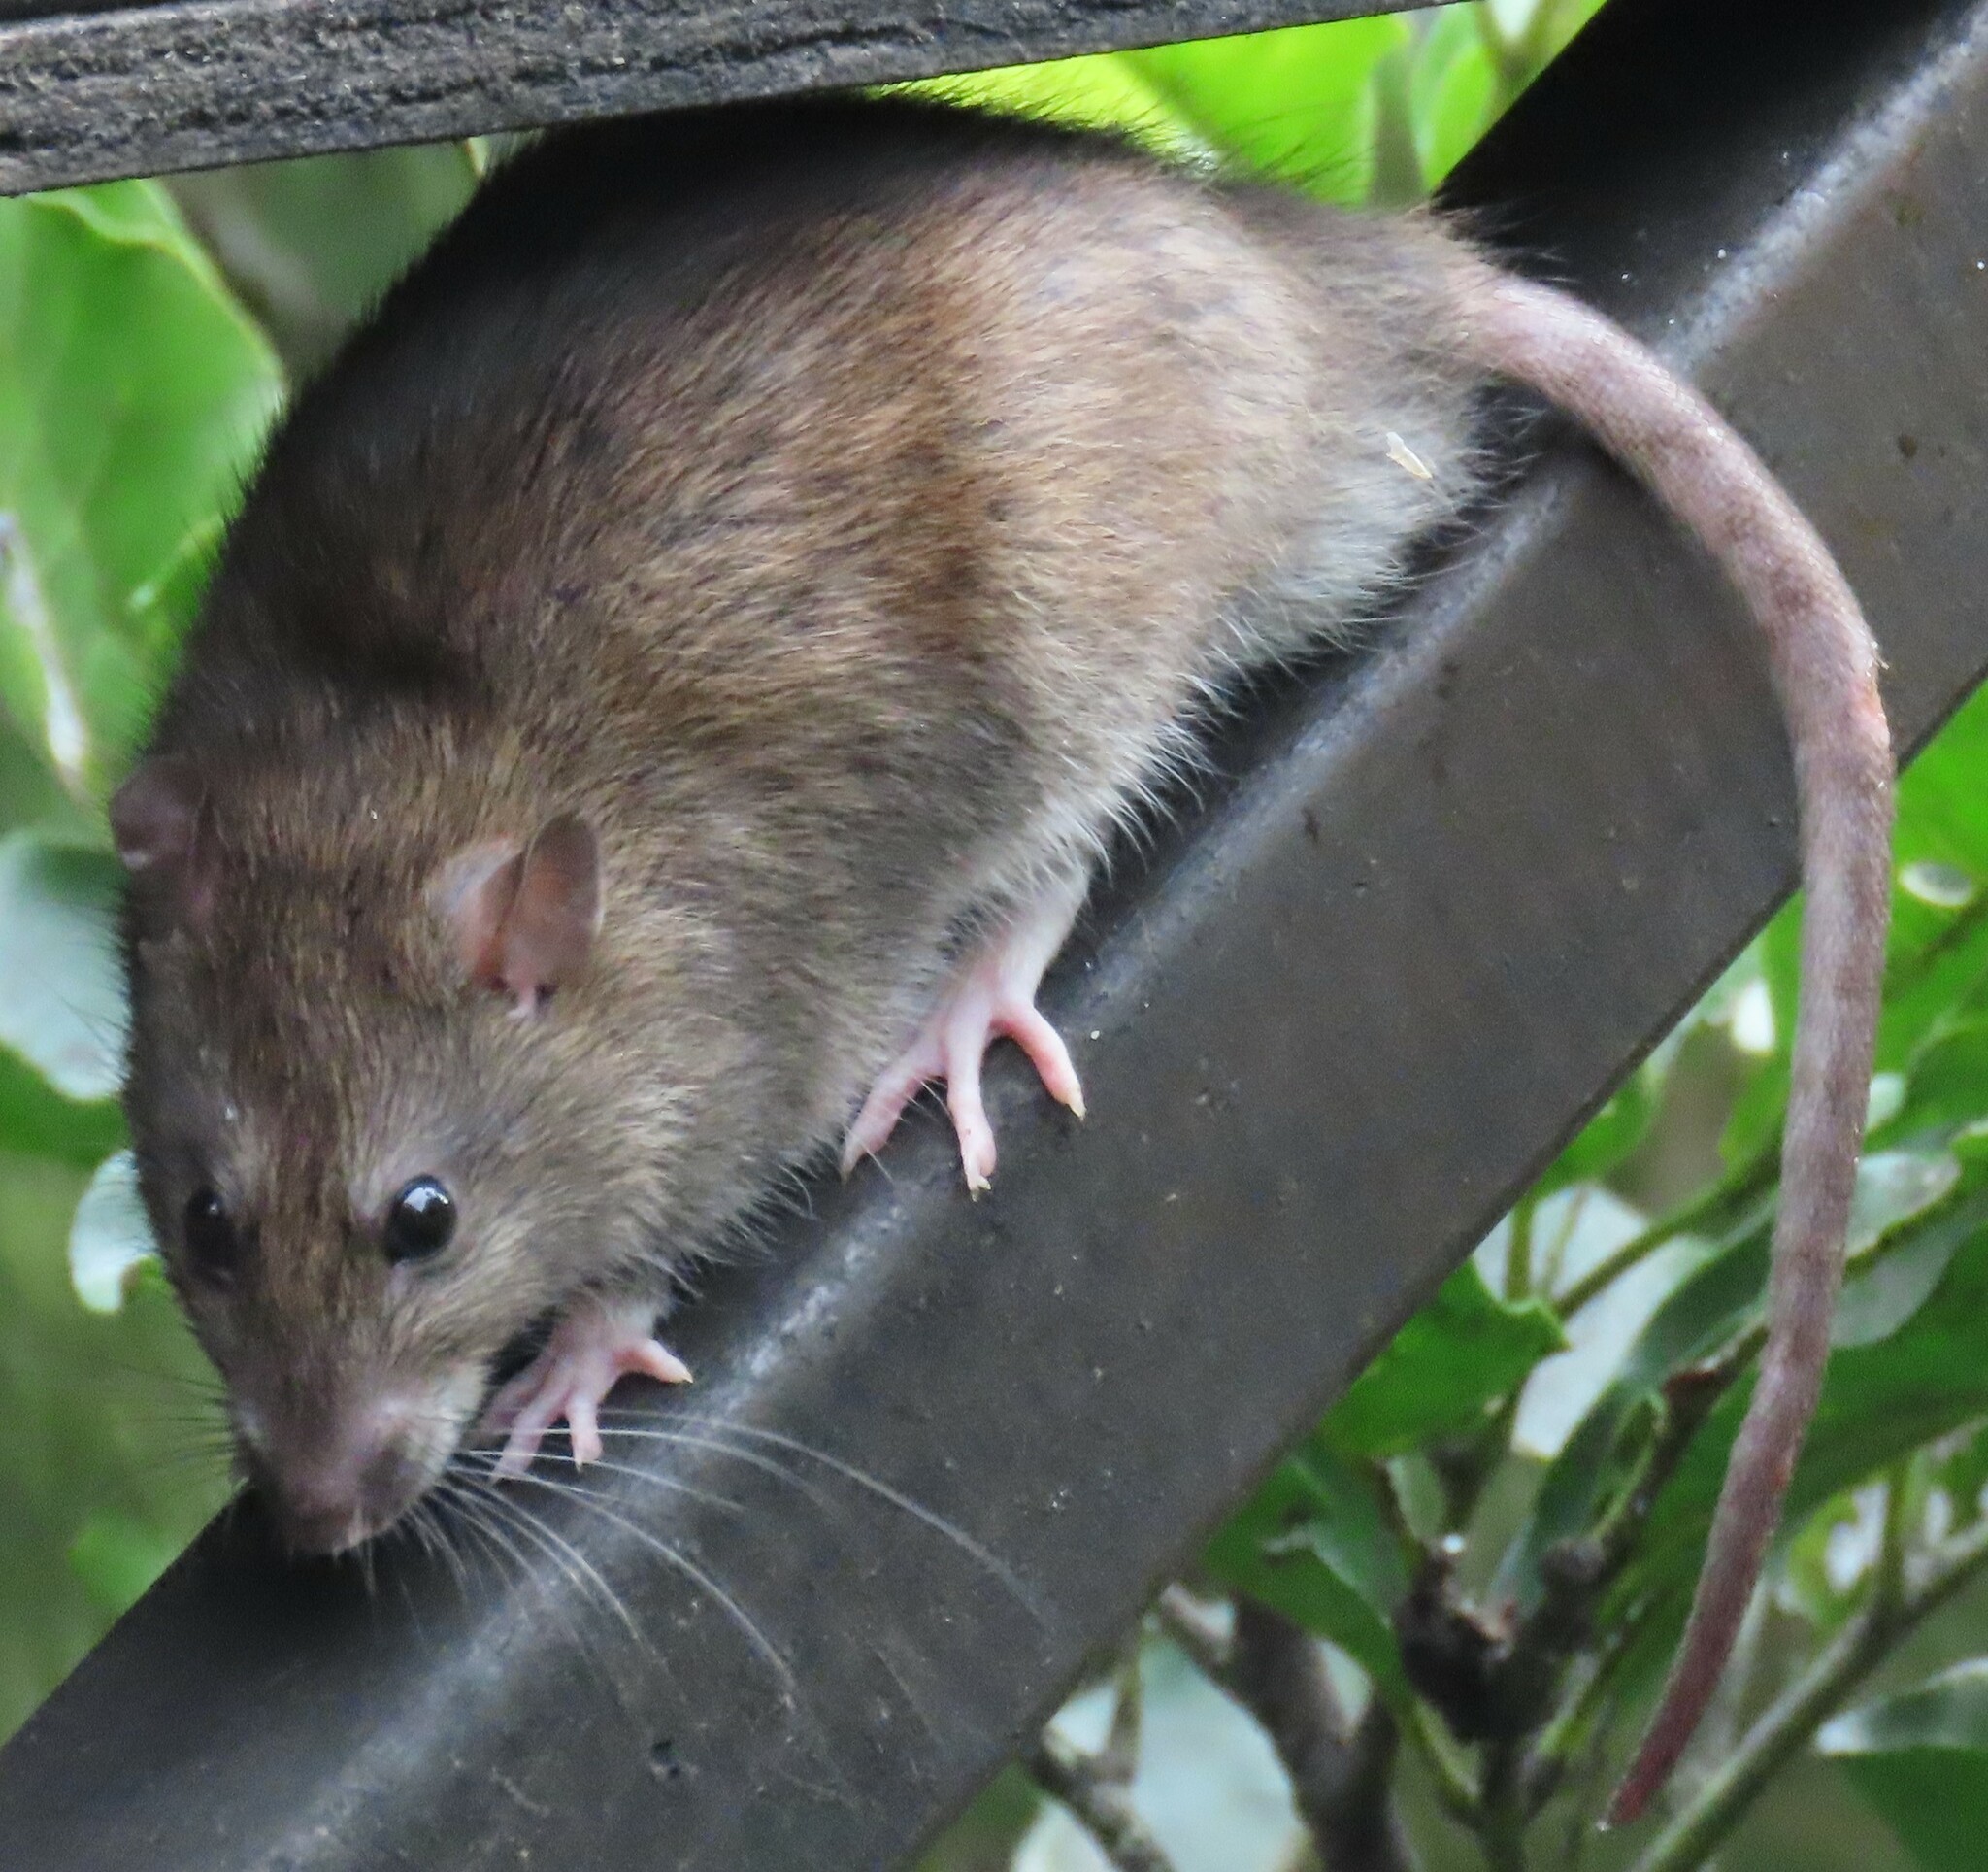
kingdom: Animalia
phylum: Chordata
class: Mammalia
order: Rodentia
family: Muridae
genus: Rattus
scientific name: Rattus norvegicus
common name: Brown rat
